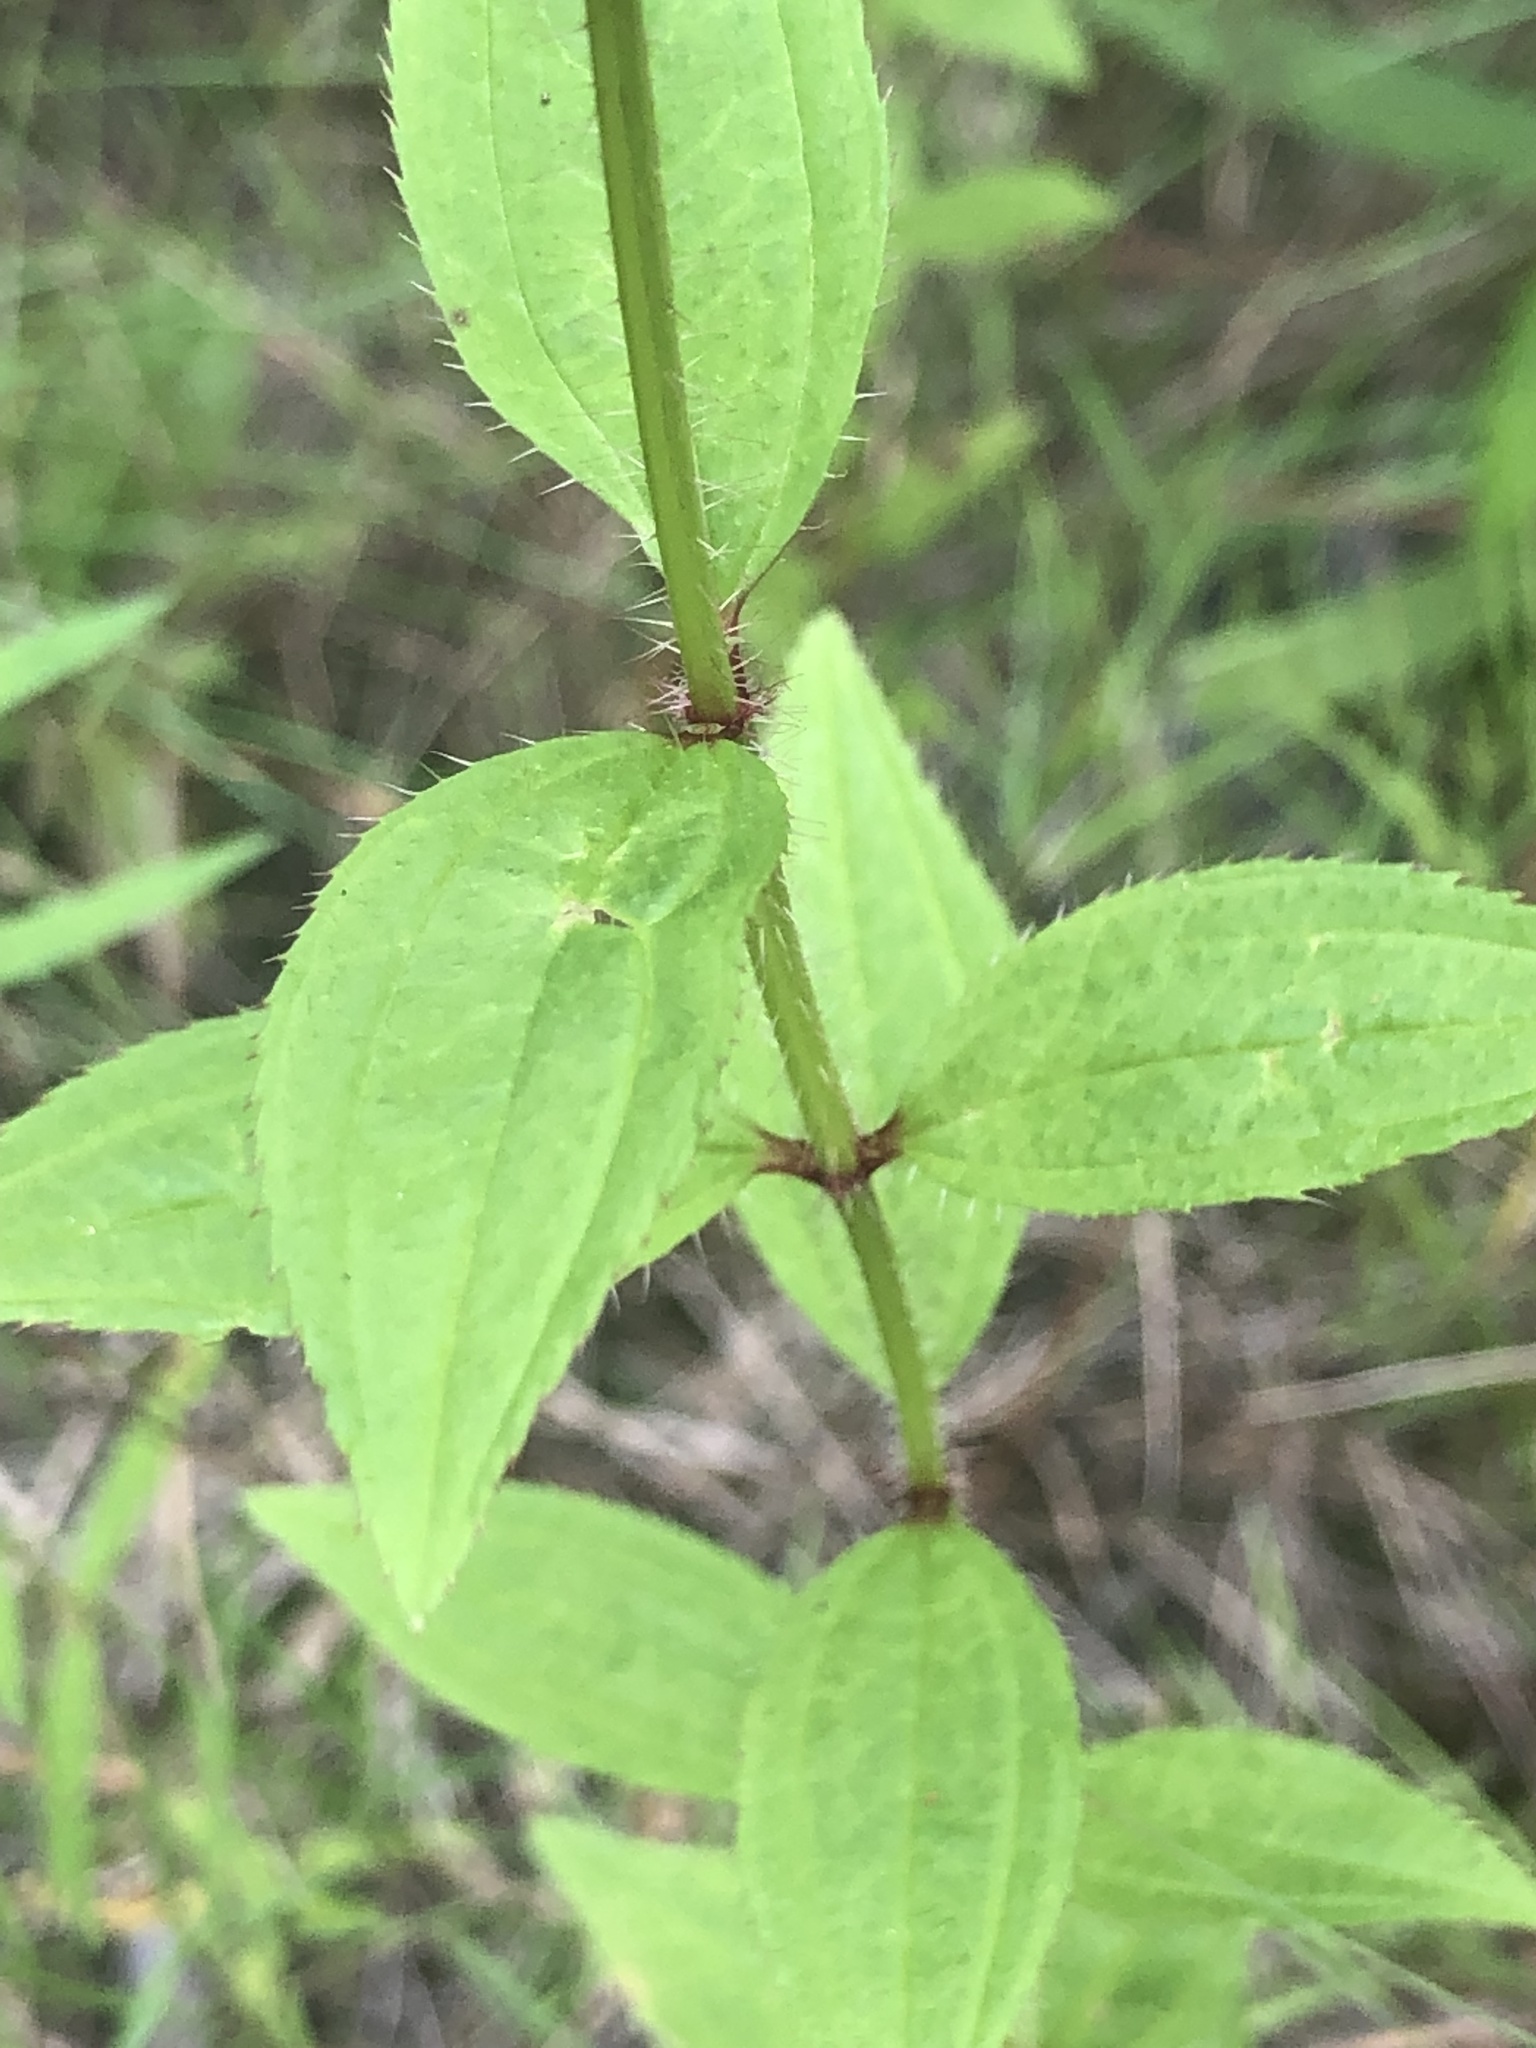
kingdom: Plantae
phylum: Tracheophyta
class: Magnoliopsida
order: Myrtales
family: Melastomataceae
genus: Rhexia
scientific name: Rhexia interior
